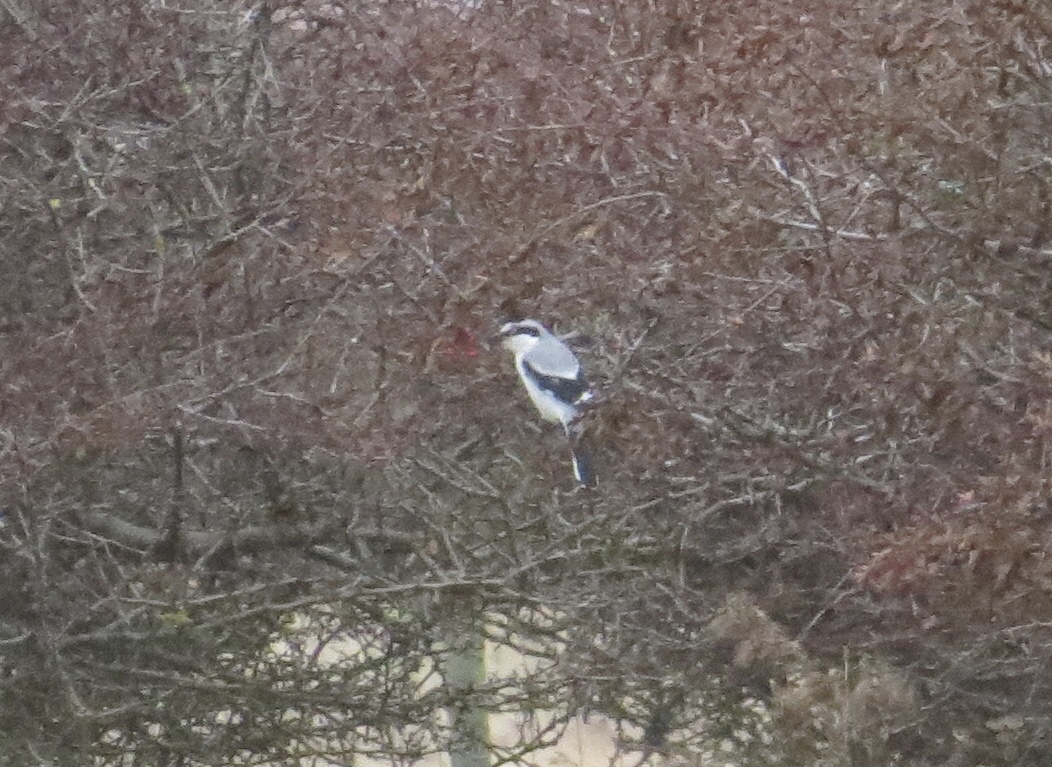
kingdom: Animalia
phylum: Chordata
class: Aves
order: Passeriformes
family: Laniidae
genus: Lanius
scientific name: Lanius excubitor
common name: Great grey shrike
